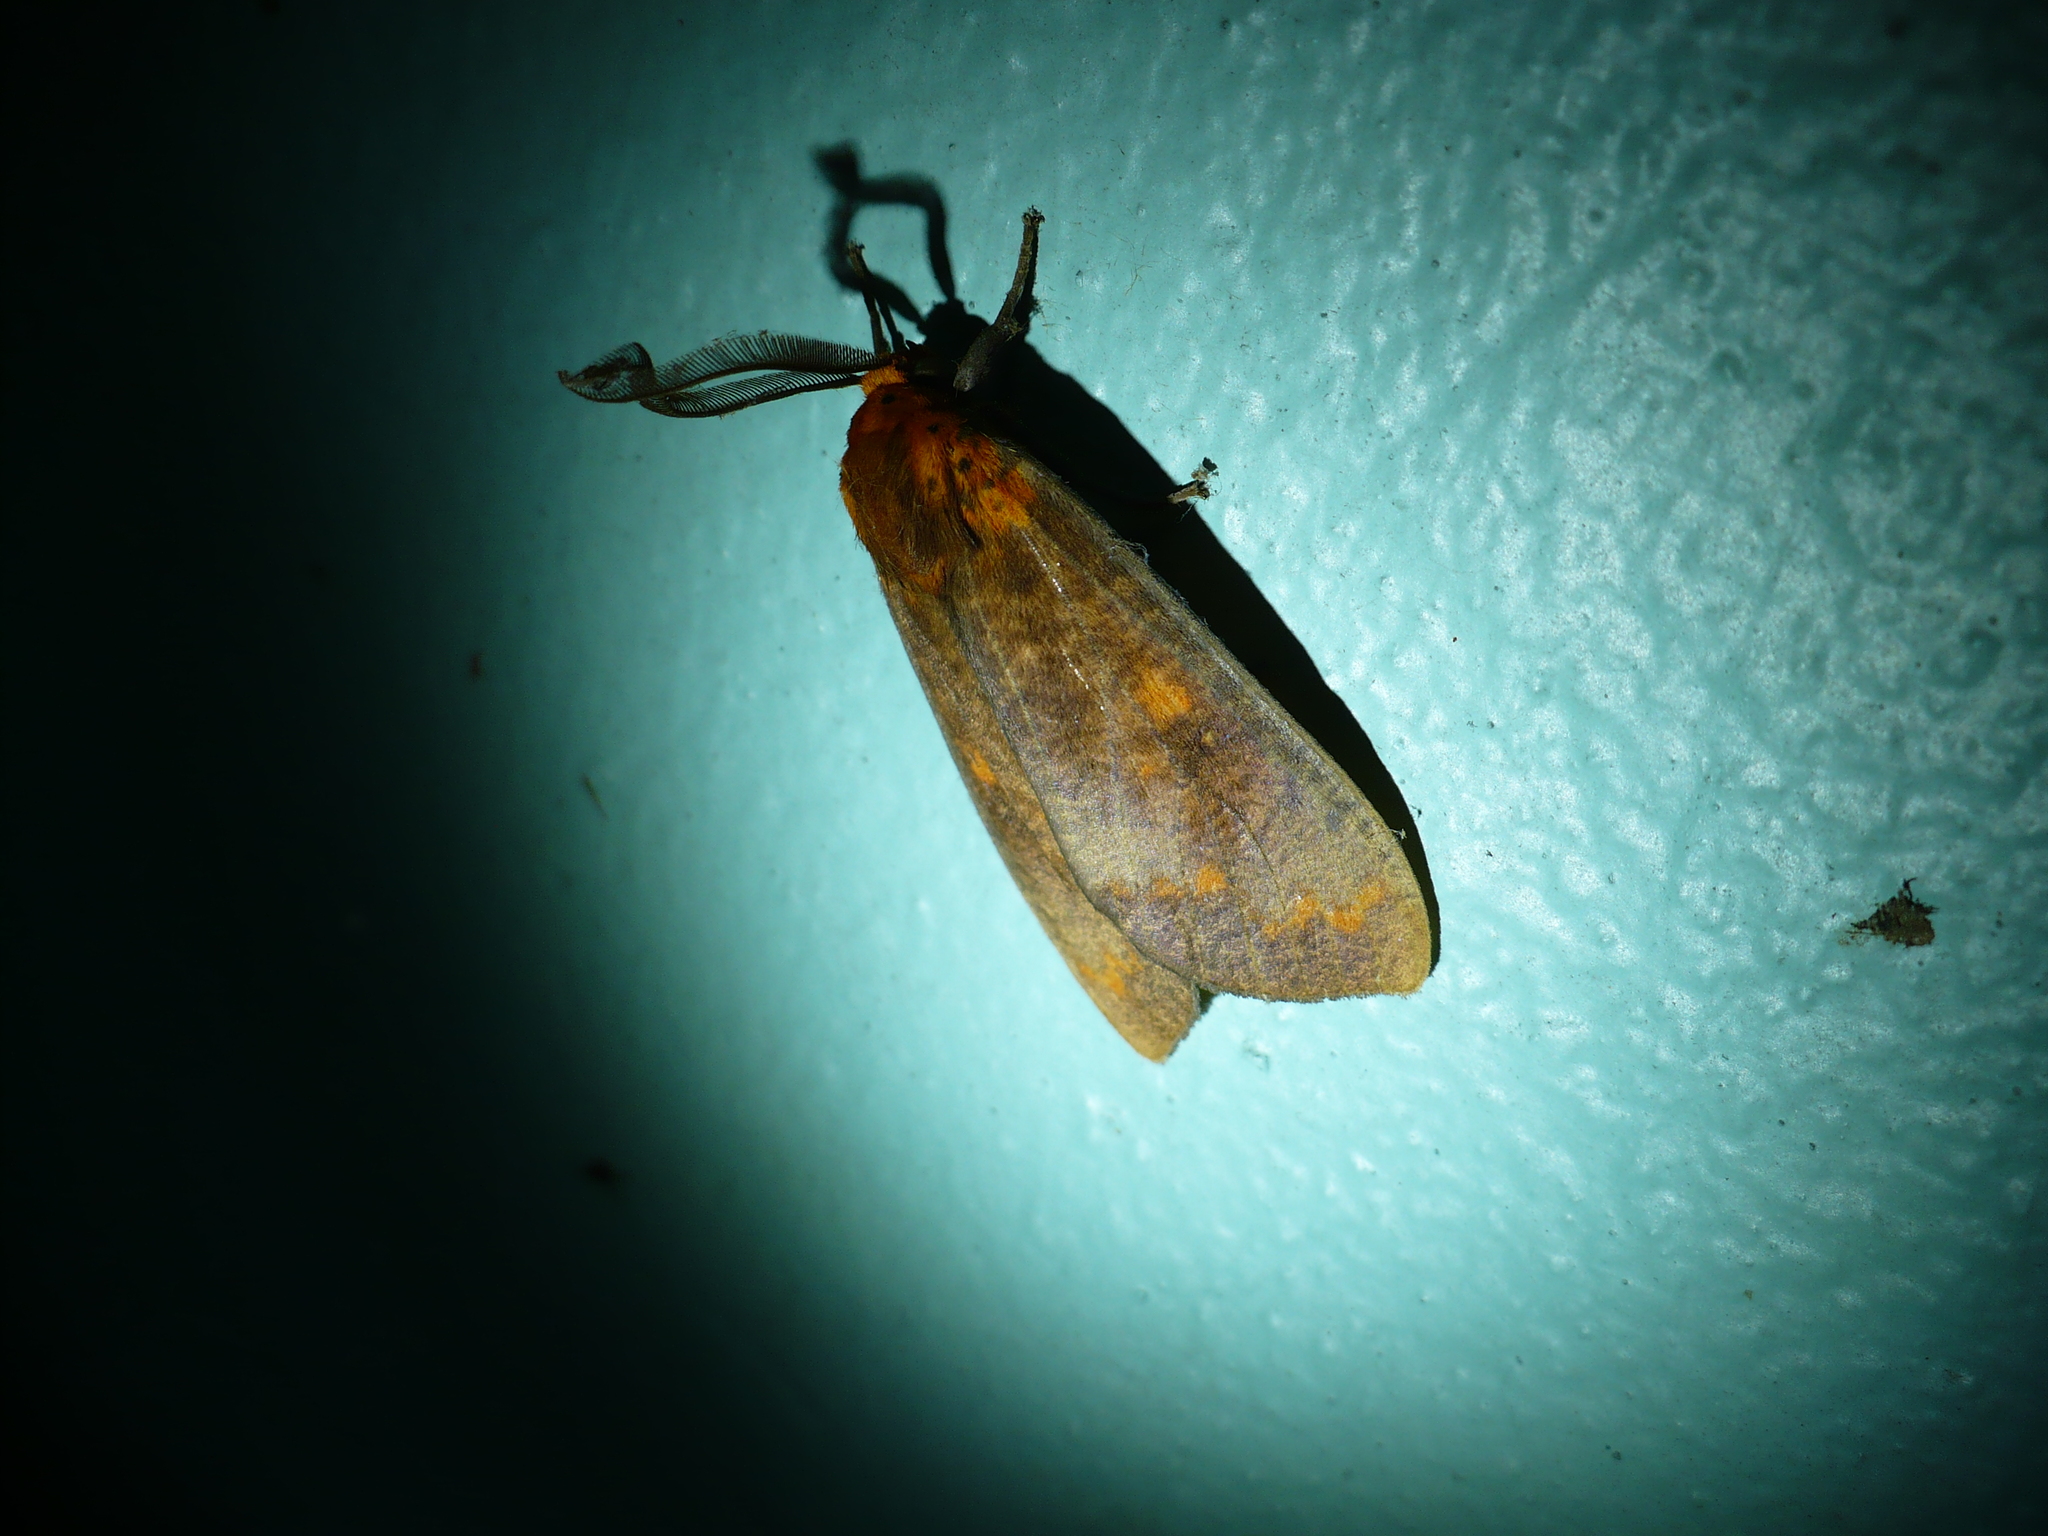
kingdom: Animalia
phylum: Arthropoda
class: Insecta
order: Lepidoptera
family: Erebidae
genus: Ammalo
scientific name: Ammalo helops
